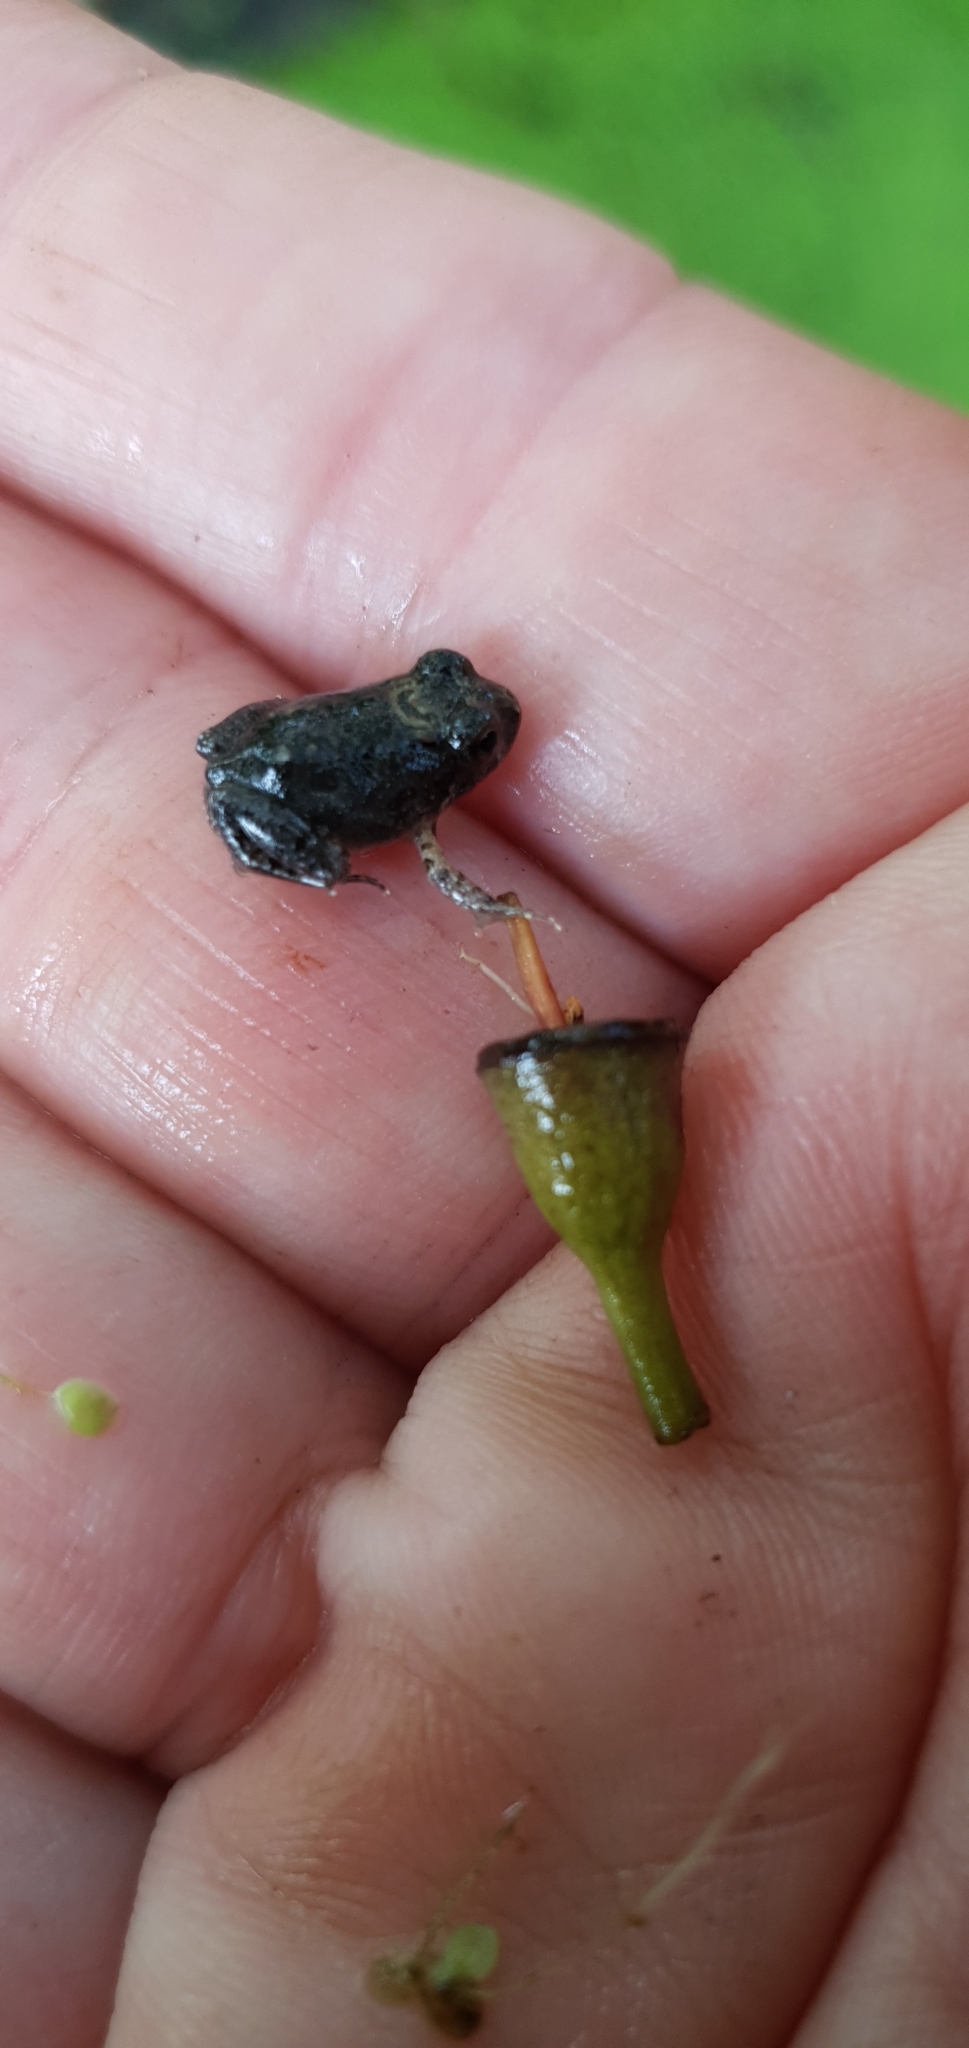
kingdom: Animalia
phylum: Chordata
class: Amphibia
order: Anura
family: Limnodynastidae
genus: Platyplectrum
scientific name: Platyplectrum ornatum
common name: Ornate burrowing frog
